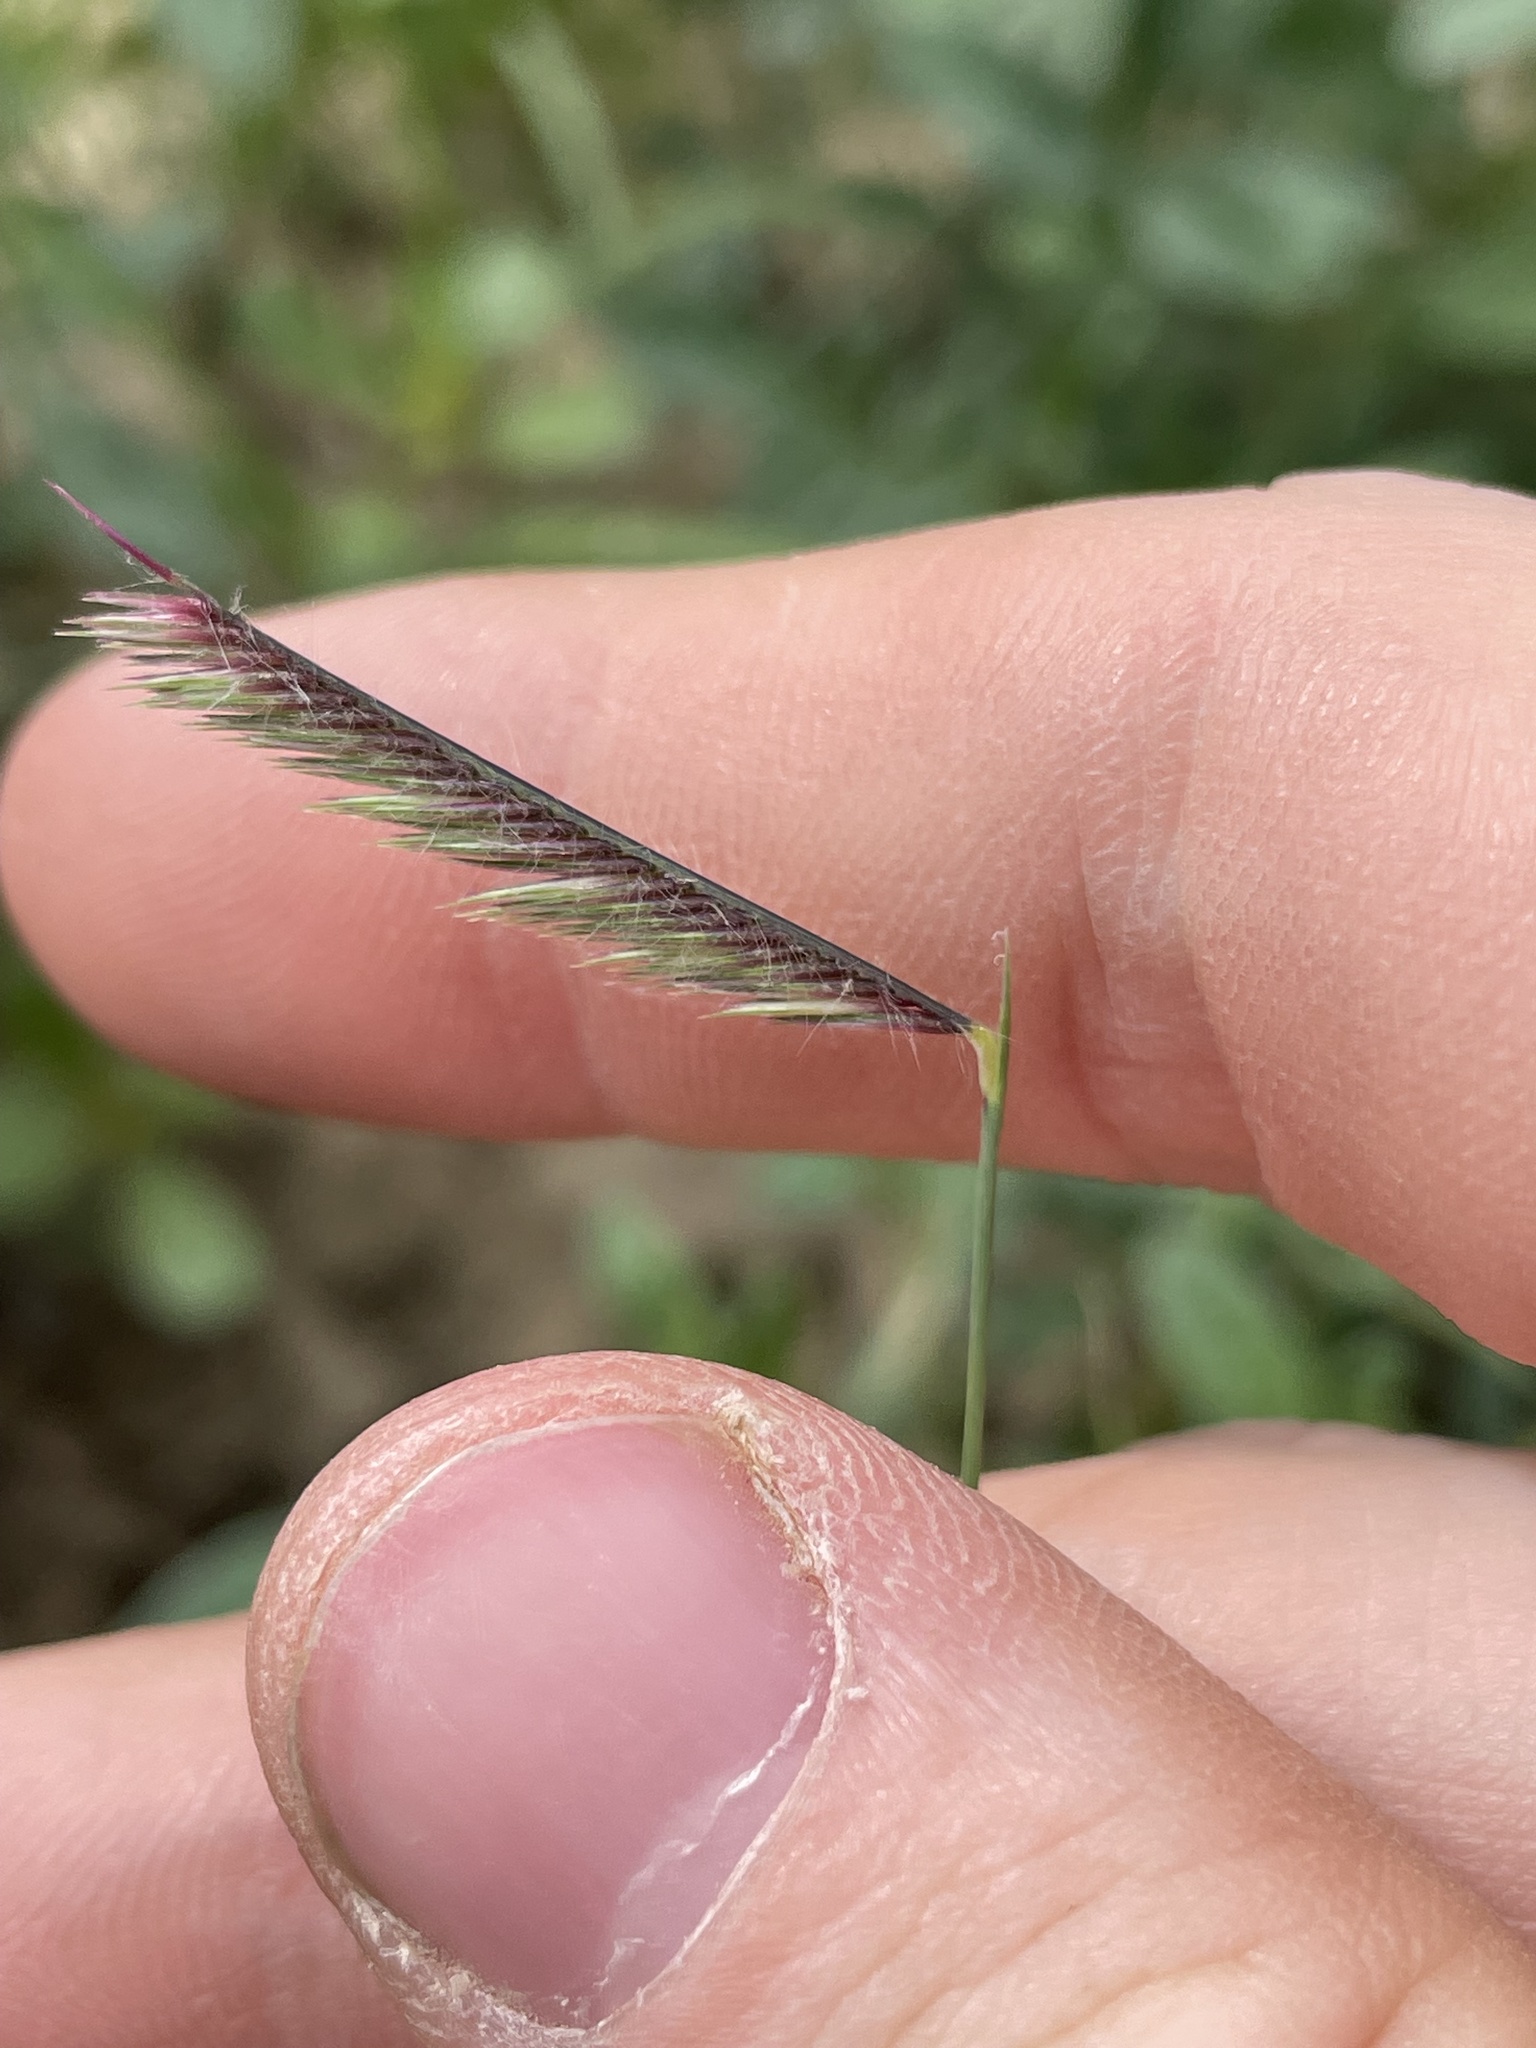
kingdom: Plantae
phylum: Tracheophyta
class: Liliopsida
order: Poales
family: Poaceae
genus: Bouteloua
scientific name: Bouteloua gracilis
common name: Blue grama
